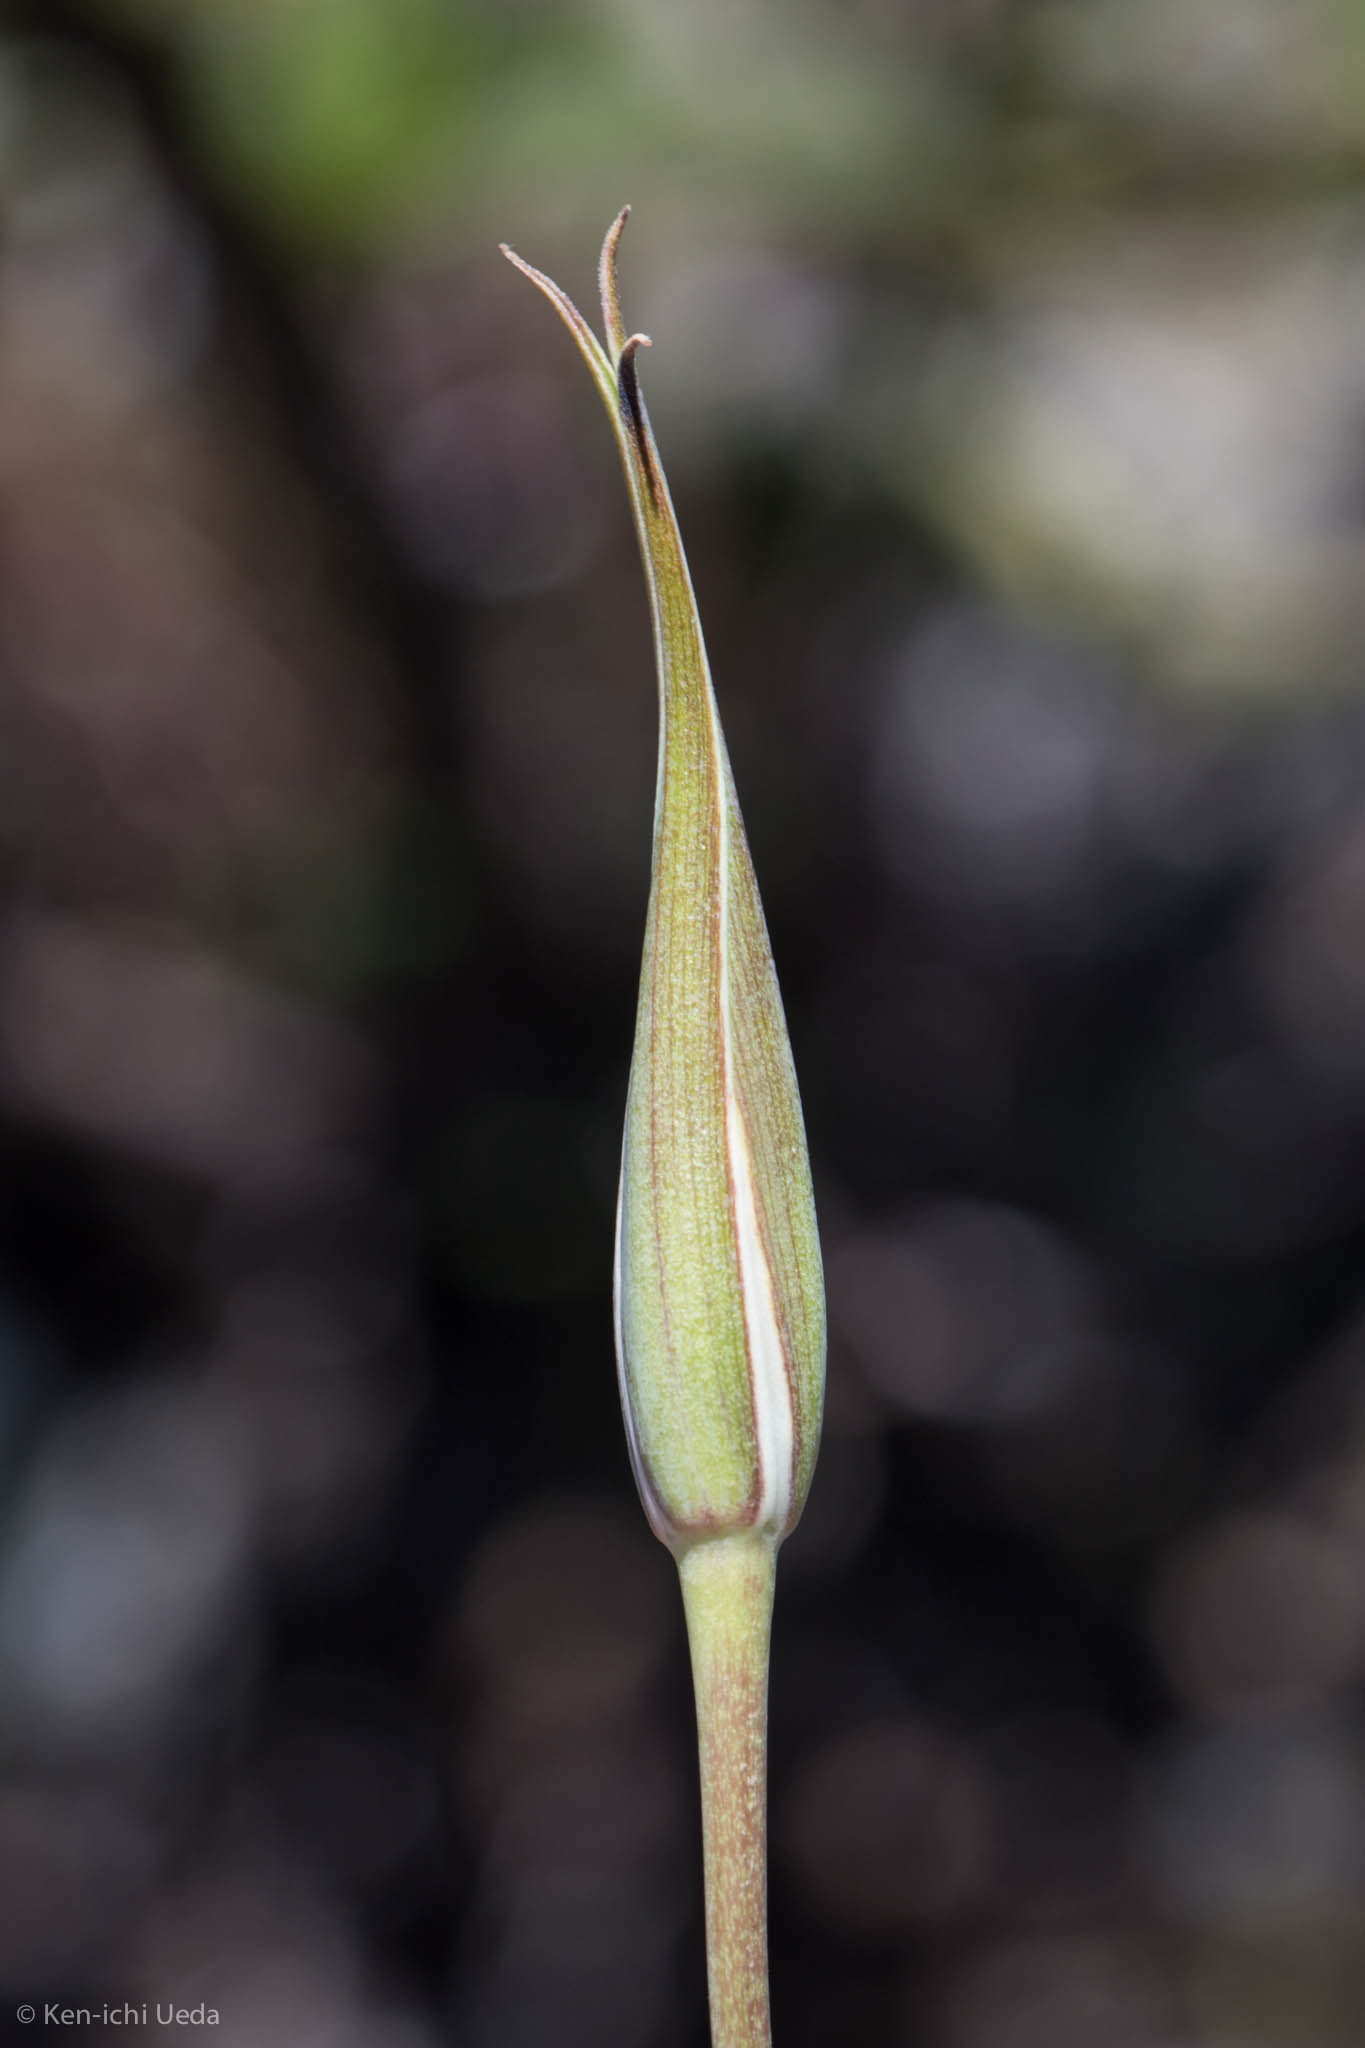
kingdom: Plantae
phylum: Tracheophyta
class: Liliopsida
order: Liliales
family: Liliaceae
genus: Calochortus
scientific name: Calochortus splendens
